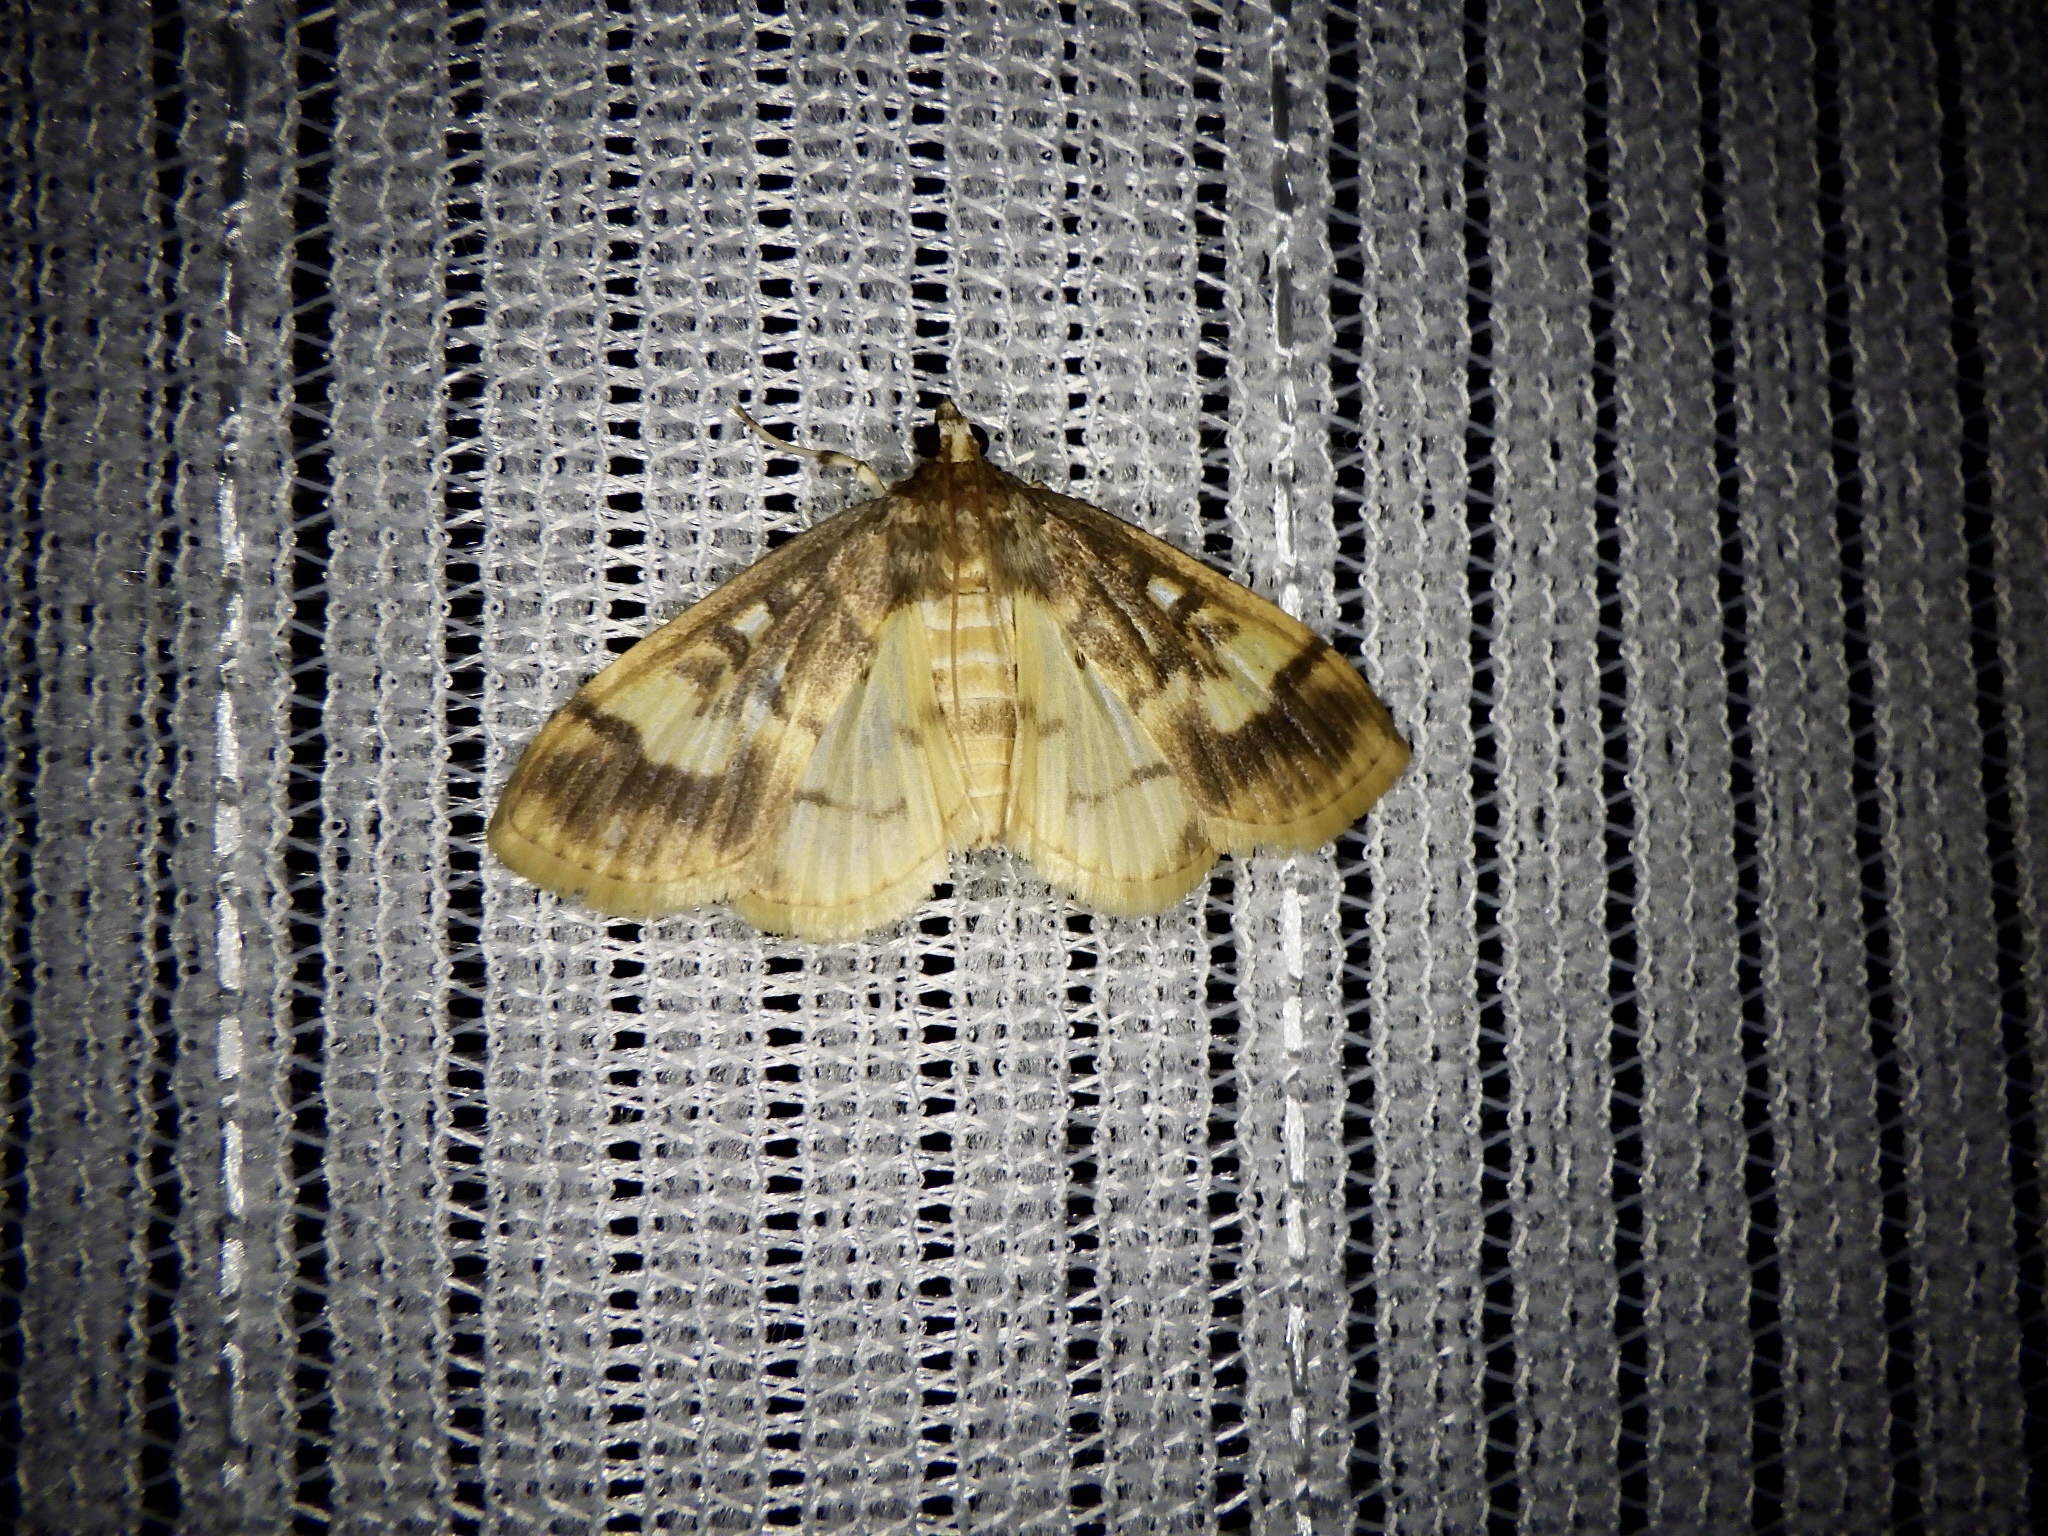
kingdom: Animalia
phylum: Arthropoda
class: Insecta
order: Lepidoptera
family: Crambidae
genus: Pseudebulea
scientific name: Pseudebulea fentoni
